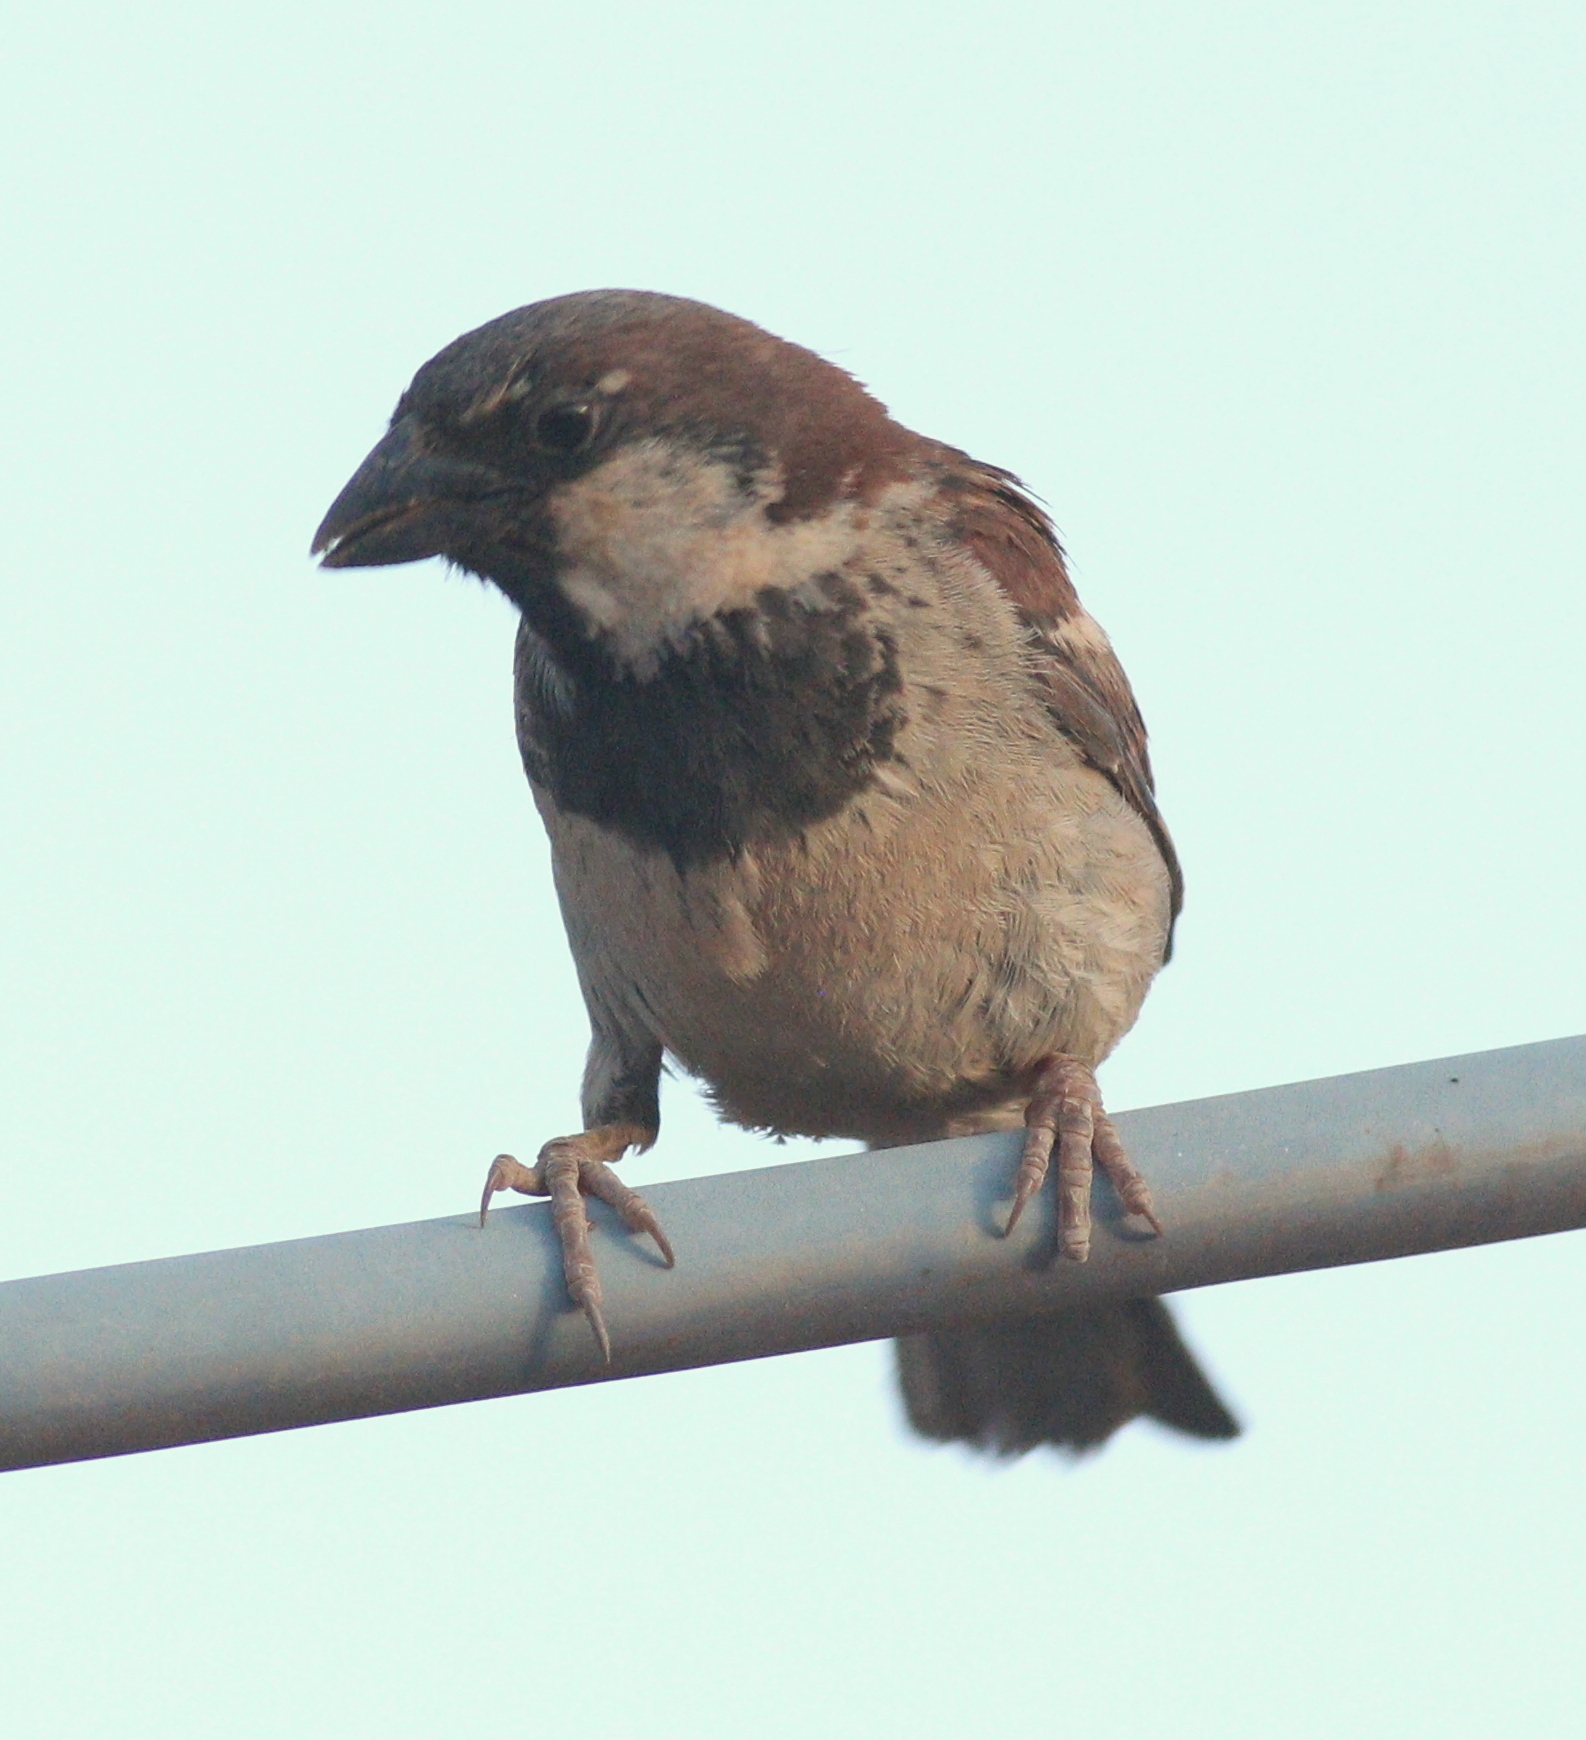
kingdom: Animalia
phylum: Chordata
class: Aves
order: Passeriformes
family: Passeridae
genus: Passer
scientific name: Passer domesticus
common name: House sparrow
